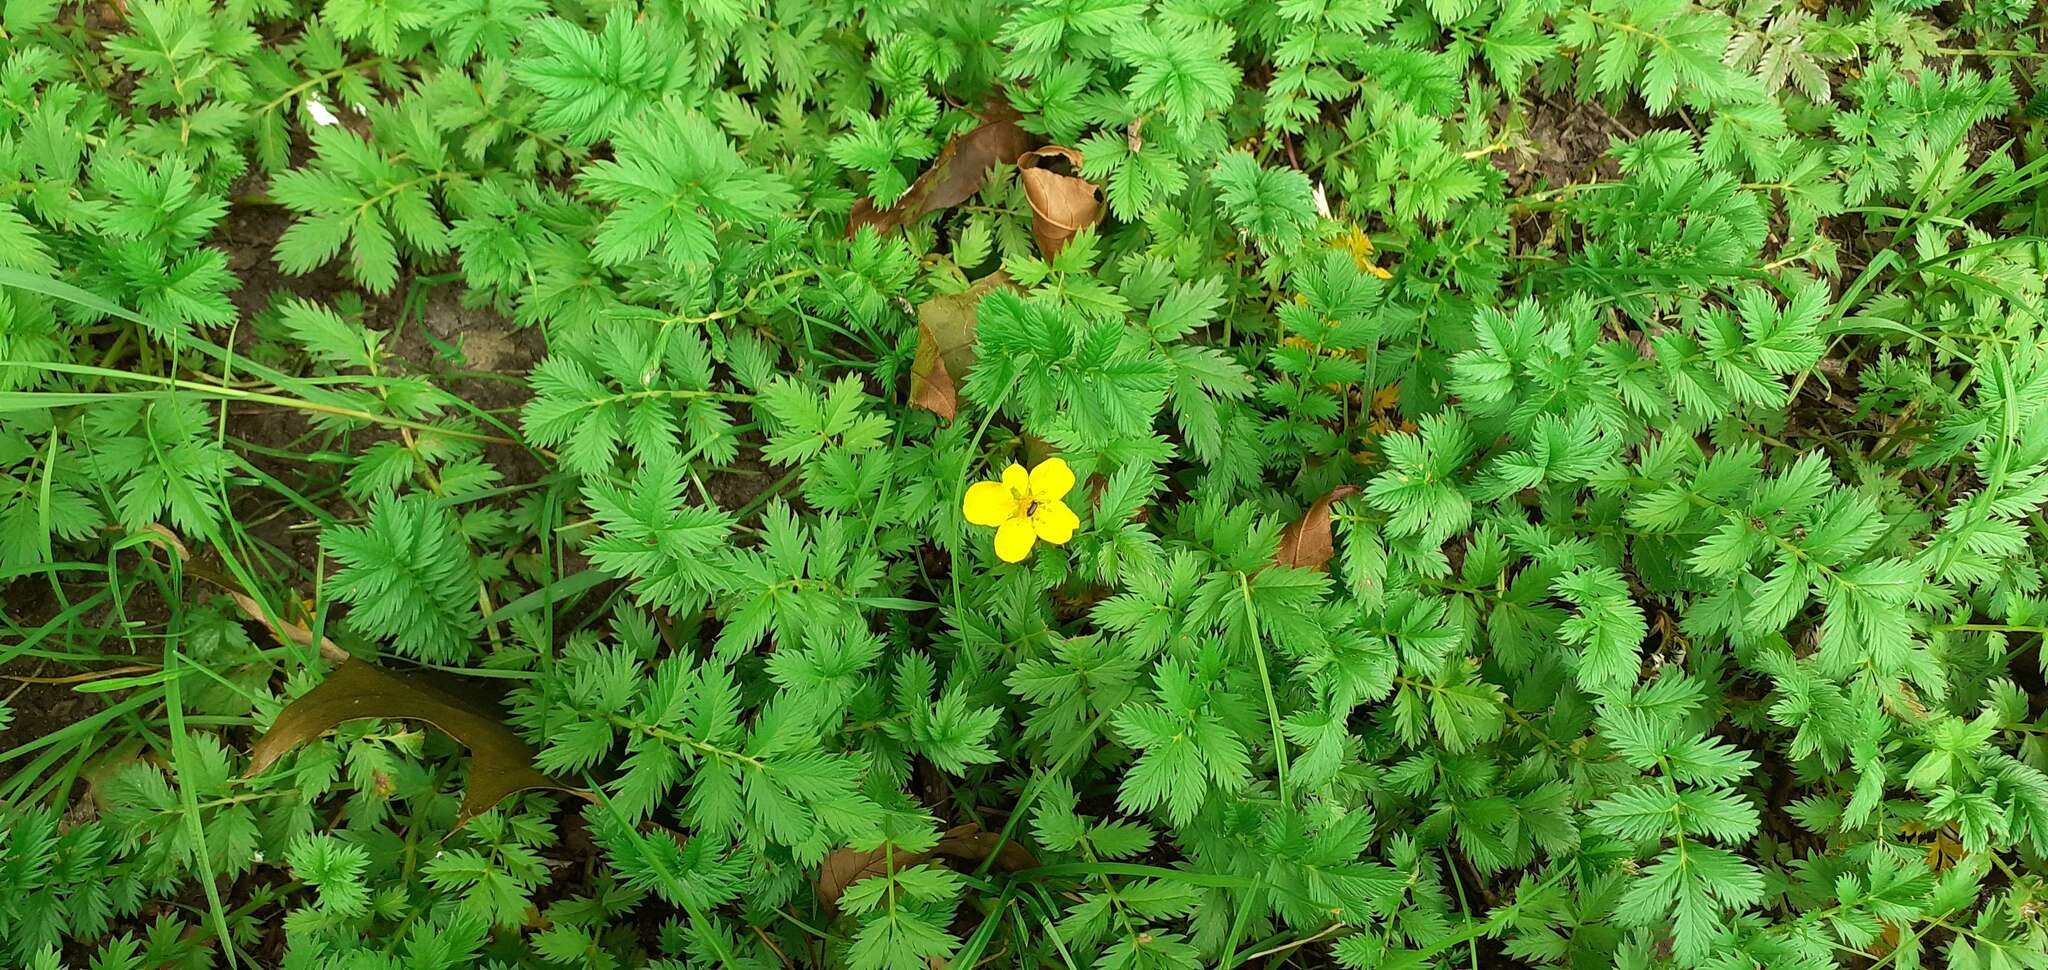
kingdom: Plantae
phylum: Tracheophyta
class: Magnoliopsida
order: Rosales
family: Rosaceae
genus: Argentina
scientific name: Argentina anserina
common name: Common silverweed
